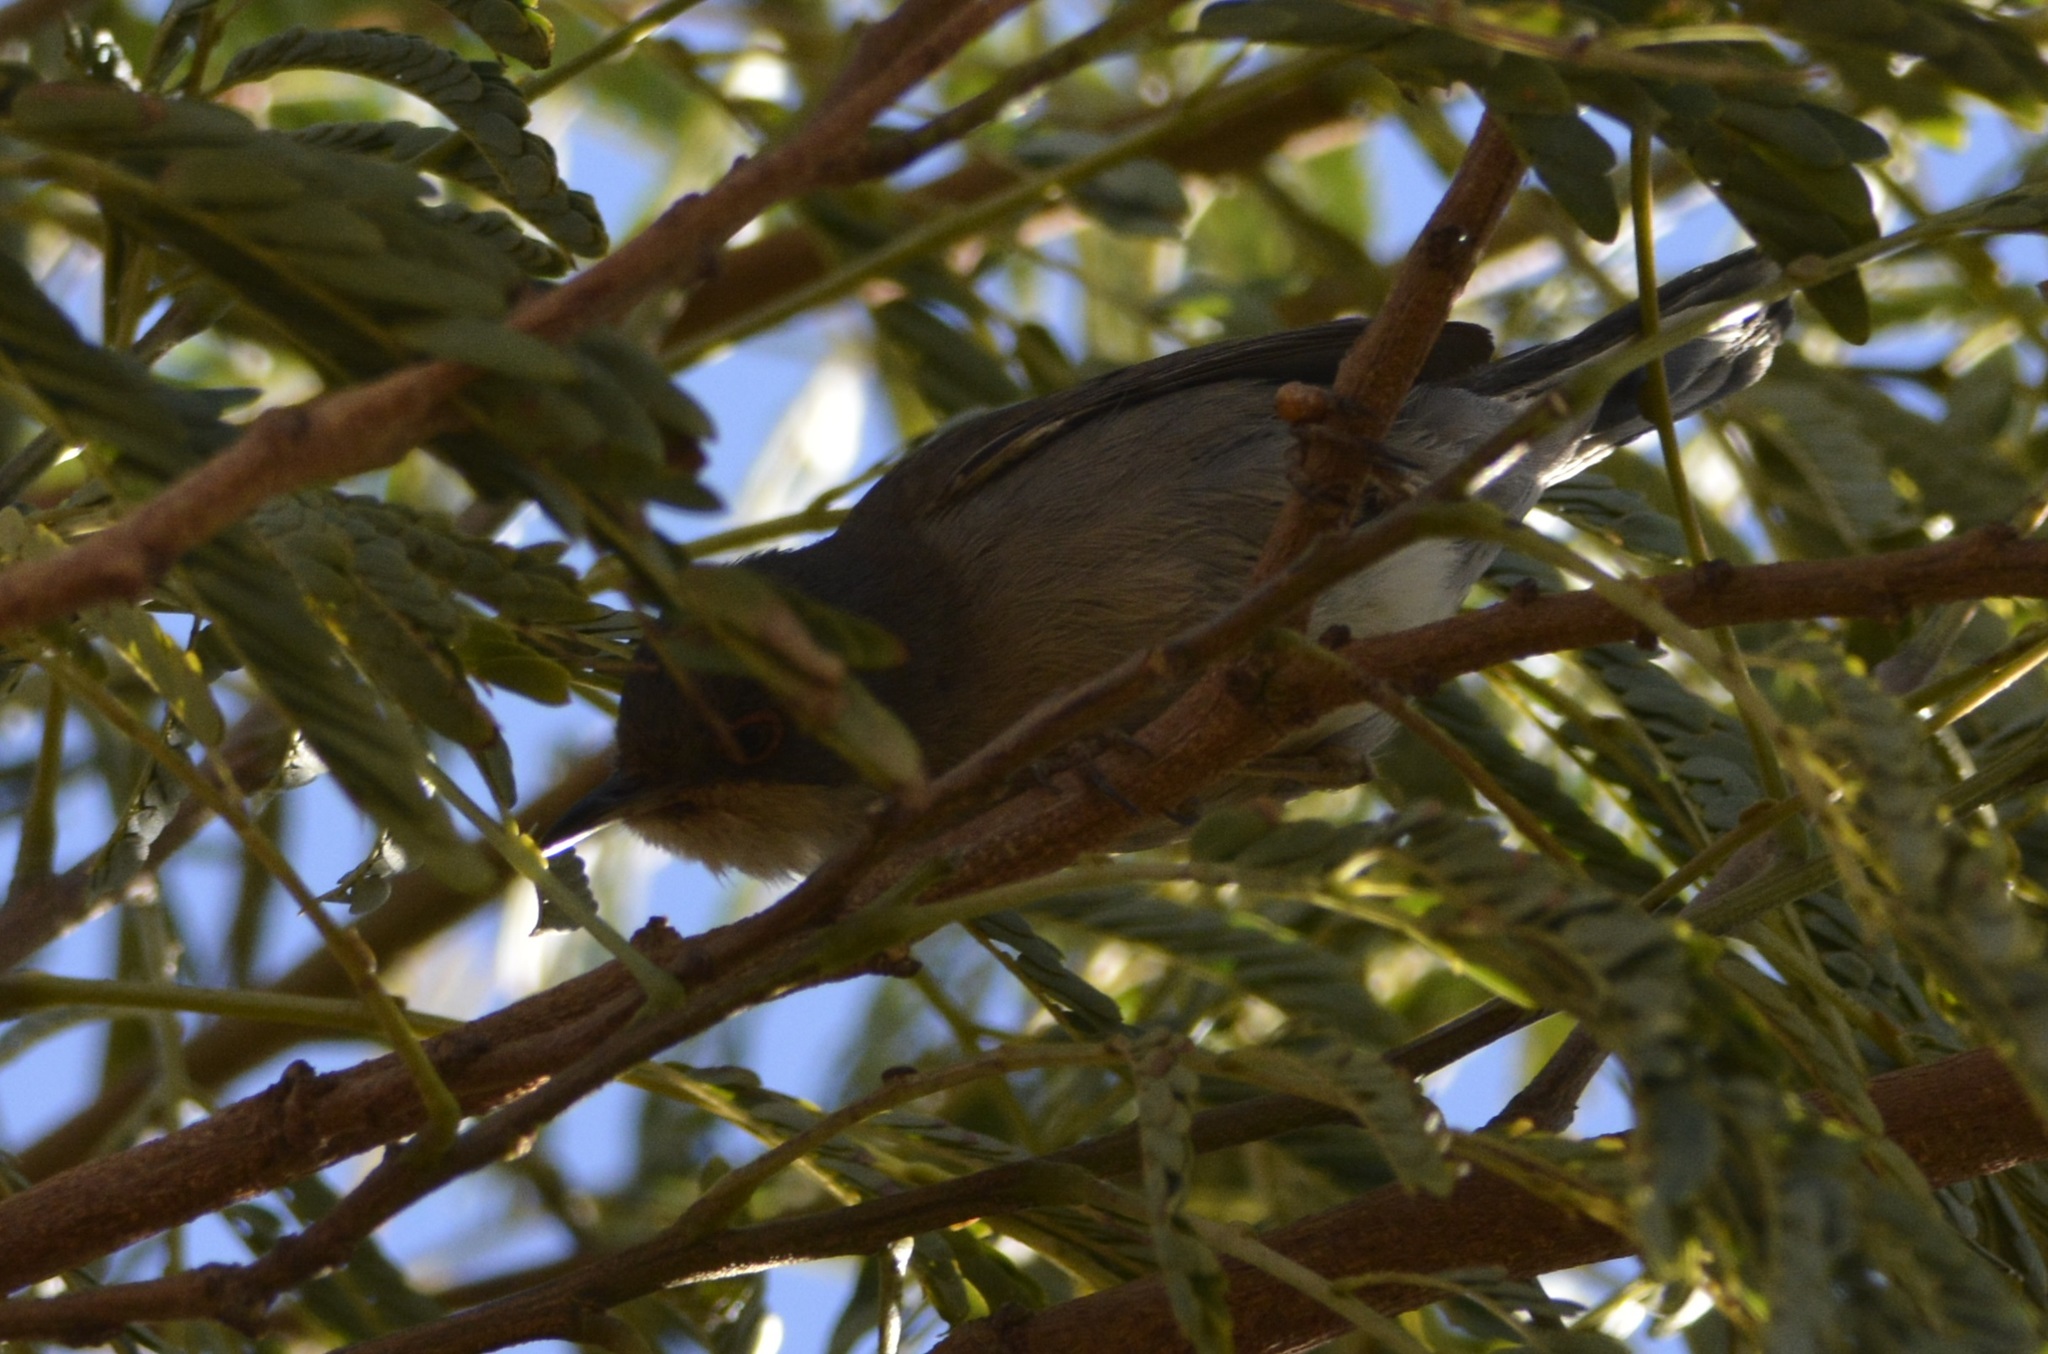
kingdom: Animalia
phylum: Chordata
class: Aves
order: Passeriformes
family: Sylviidae
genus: Curruca
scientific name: Curruca melanocephala
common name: Sardinian warbler
